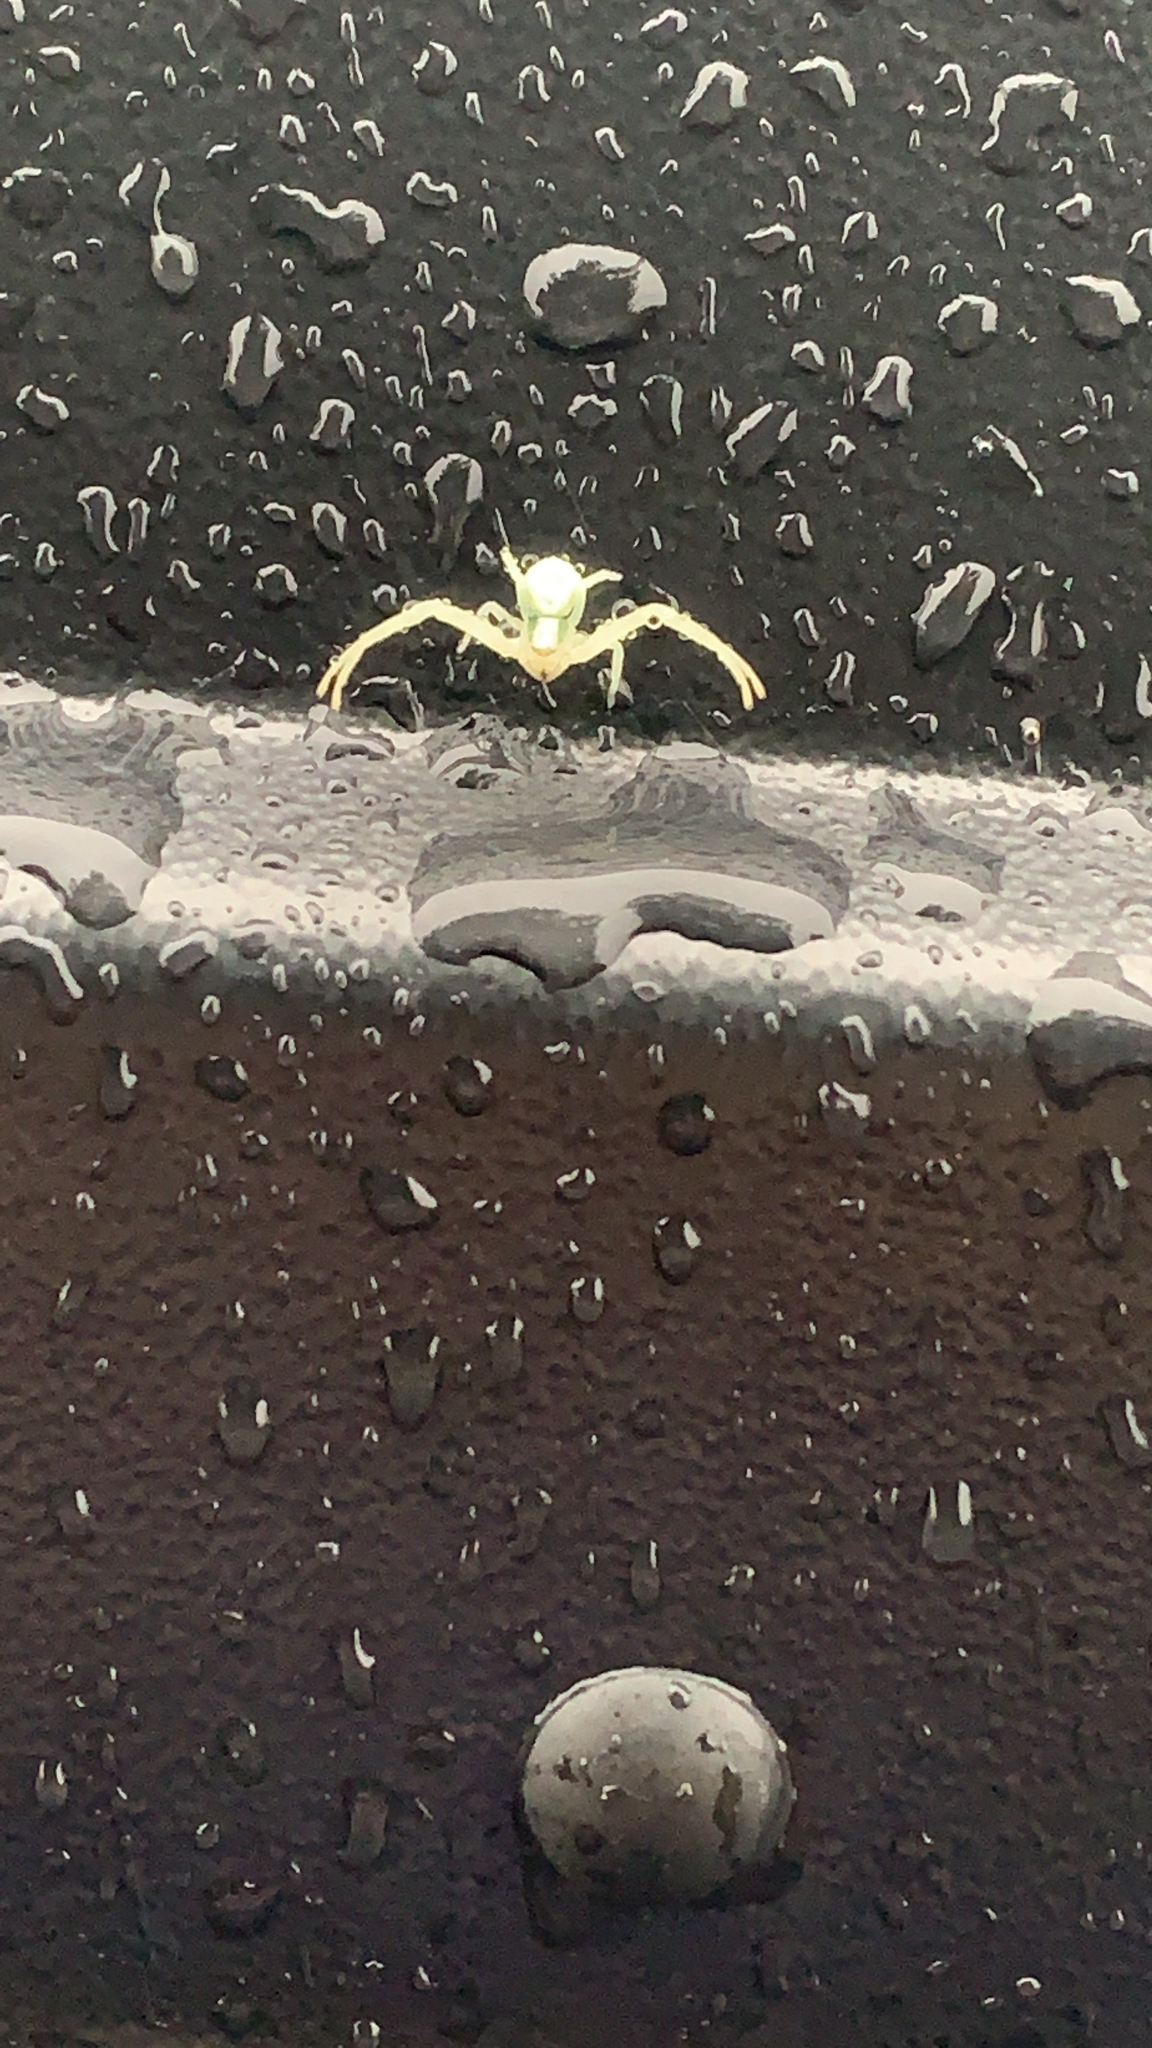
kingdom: Animalia
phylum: Arthropoda
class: Arachnida
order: Araneae
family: Thomisidae
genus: Misumena
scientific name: Misumena vatia
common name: Goldenrod crab spider
